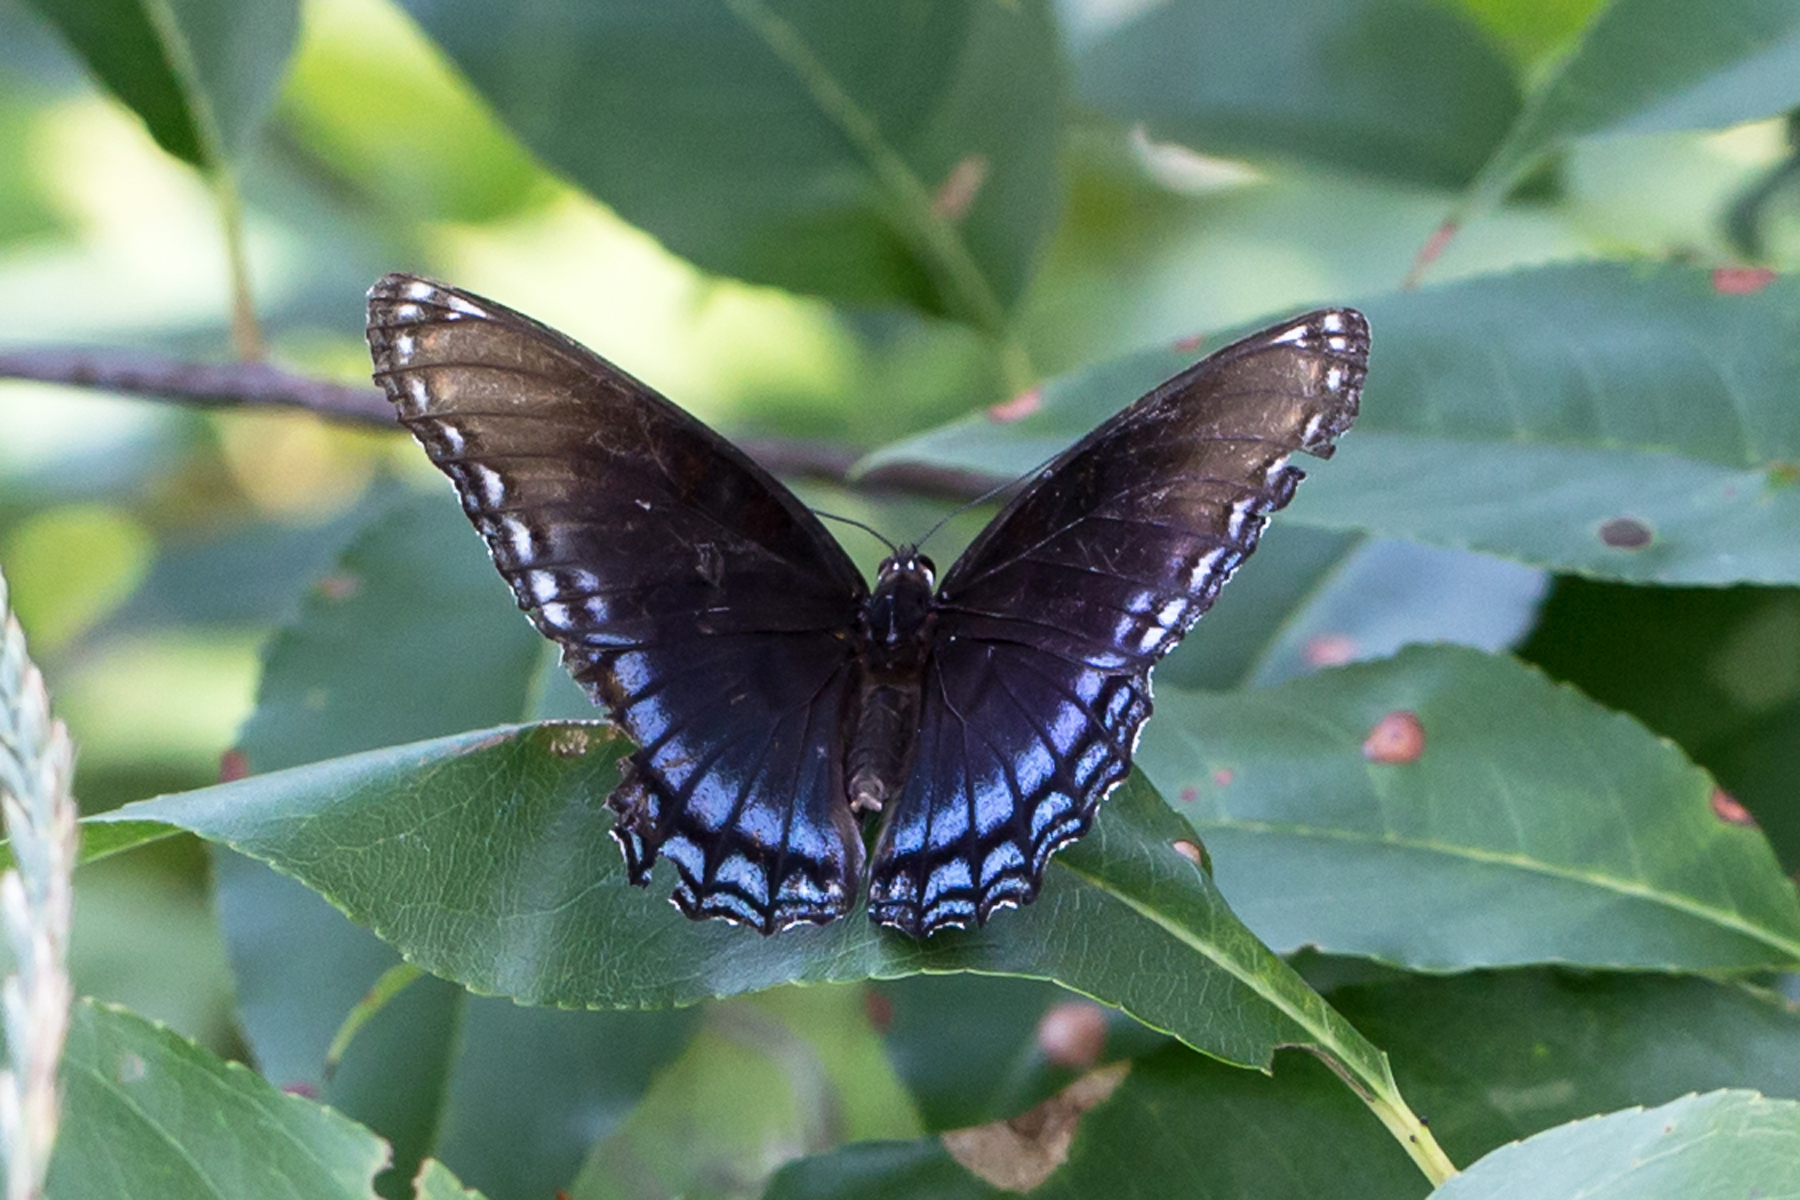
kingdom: Animalia
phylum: Arthropoda
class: Insecta
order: Lepidoptera
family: Nymphalidae
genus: Limenitis
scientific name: Limenitis astyanax
